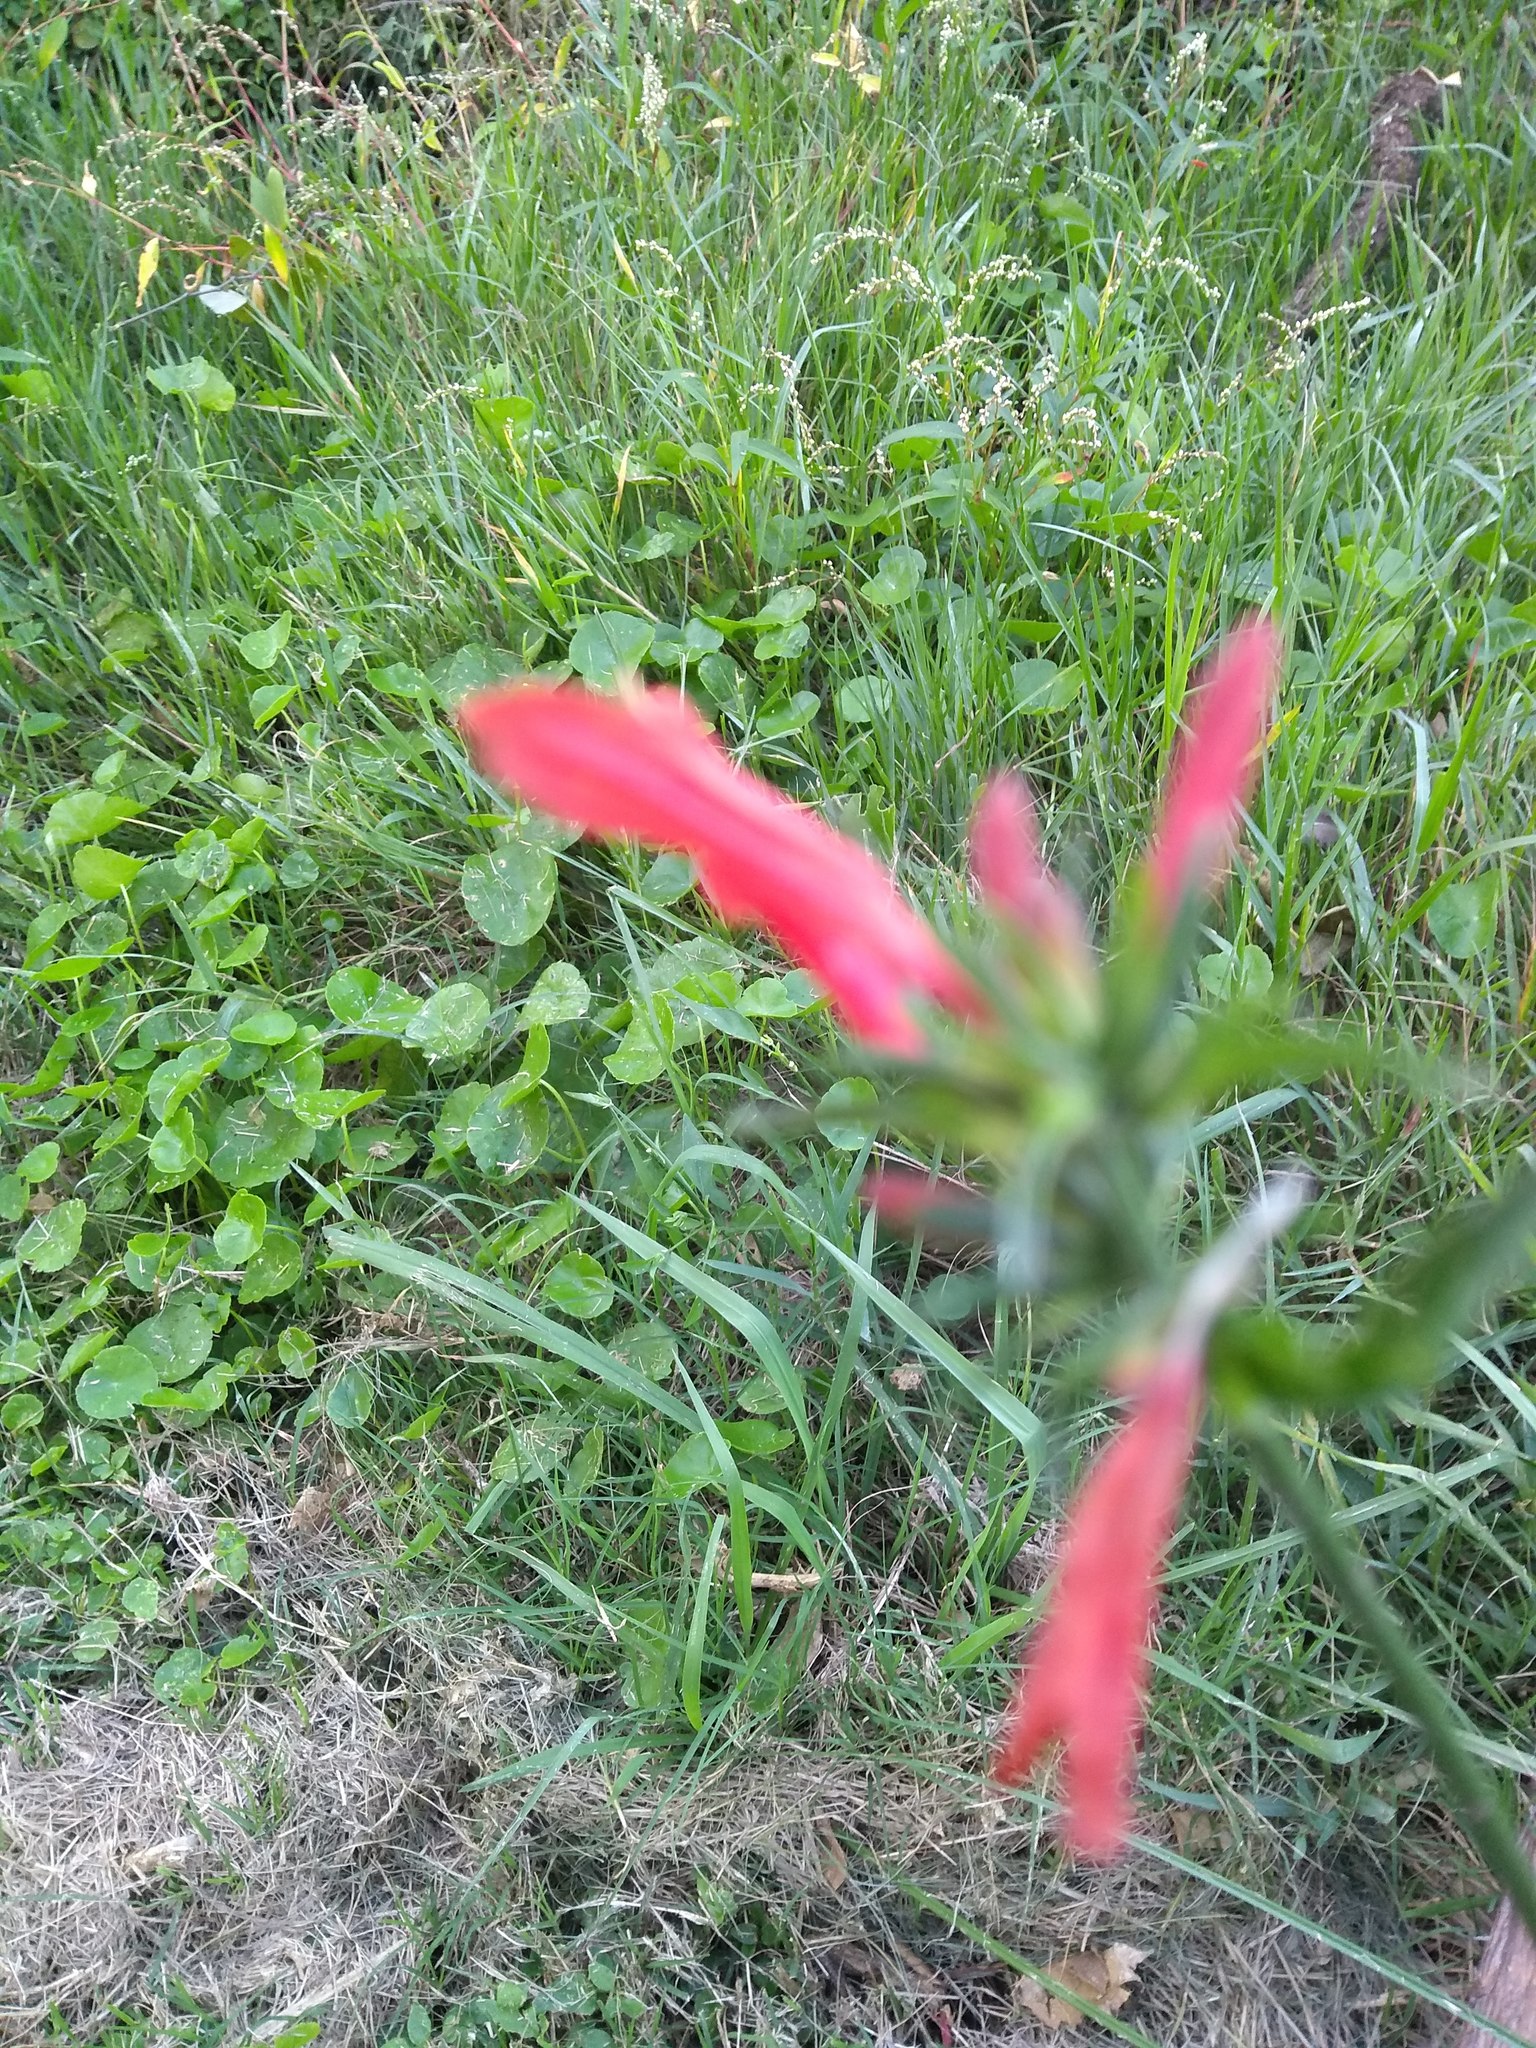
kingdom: Plantae
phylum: Tracheophyta
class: Magnoliopsida
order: Lamiales
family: Acanthaceae
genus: Dicliptera
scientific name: Dicliptera squarrosa
